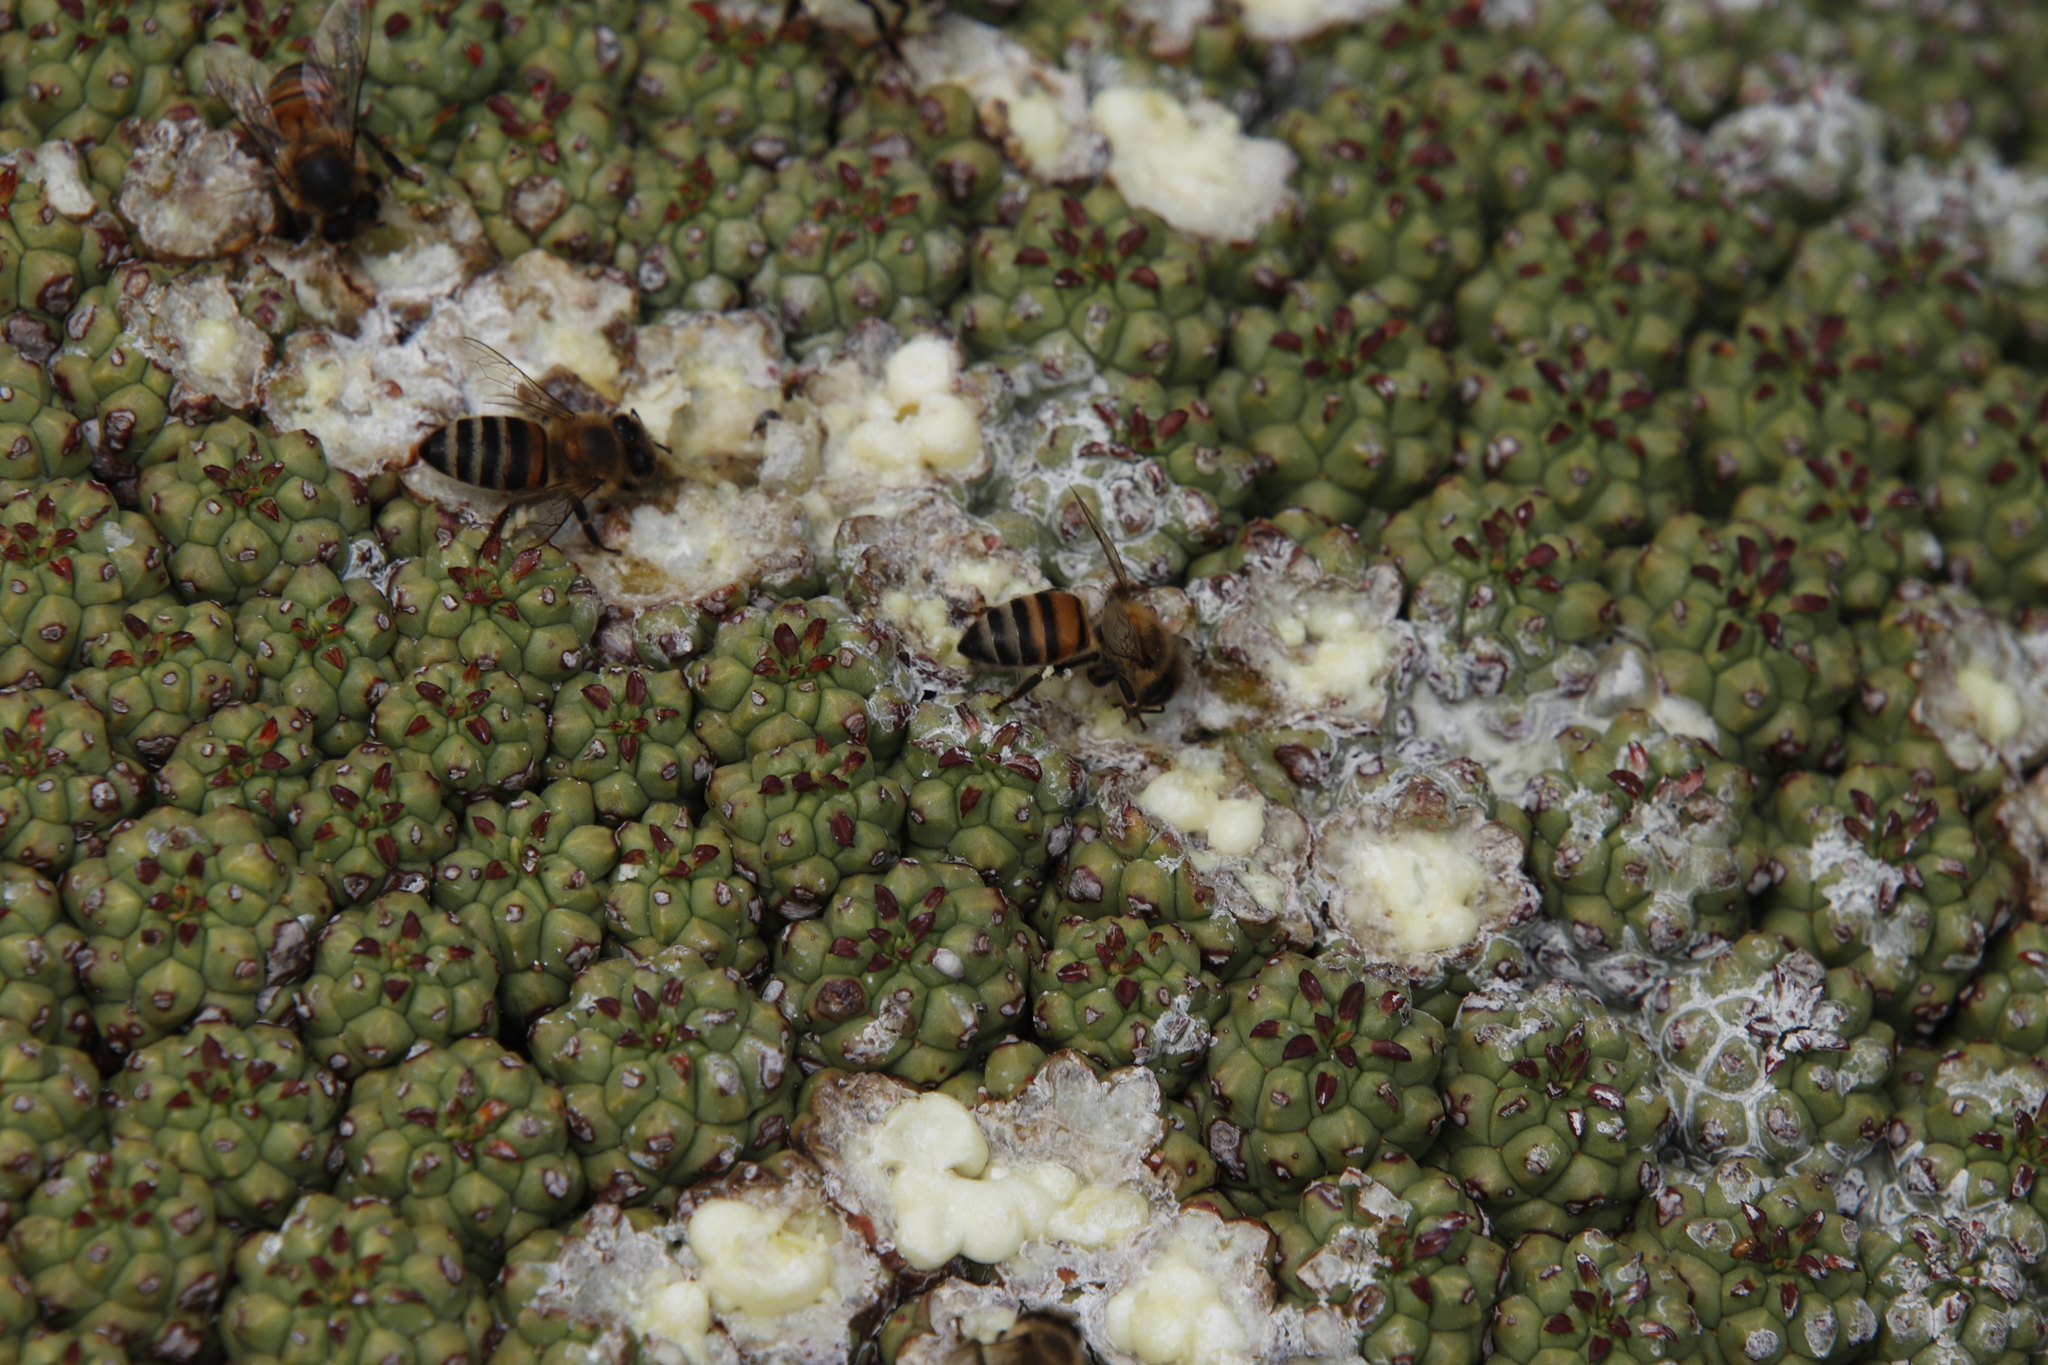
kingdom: Animalia
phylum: Arthropoda
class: Insecta
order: Hymenoptera
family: Apidae
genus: Apis
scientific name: Apis mellifera
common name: Honey bee
